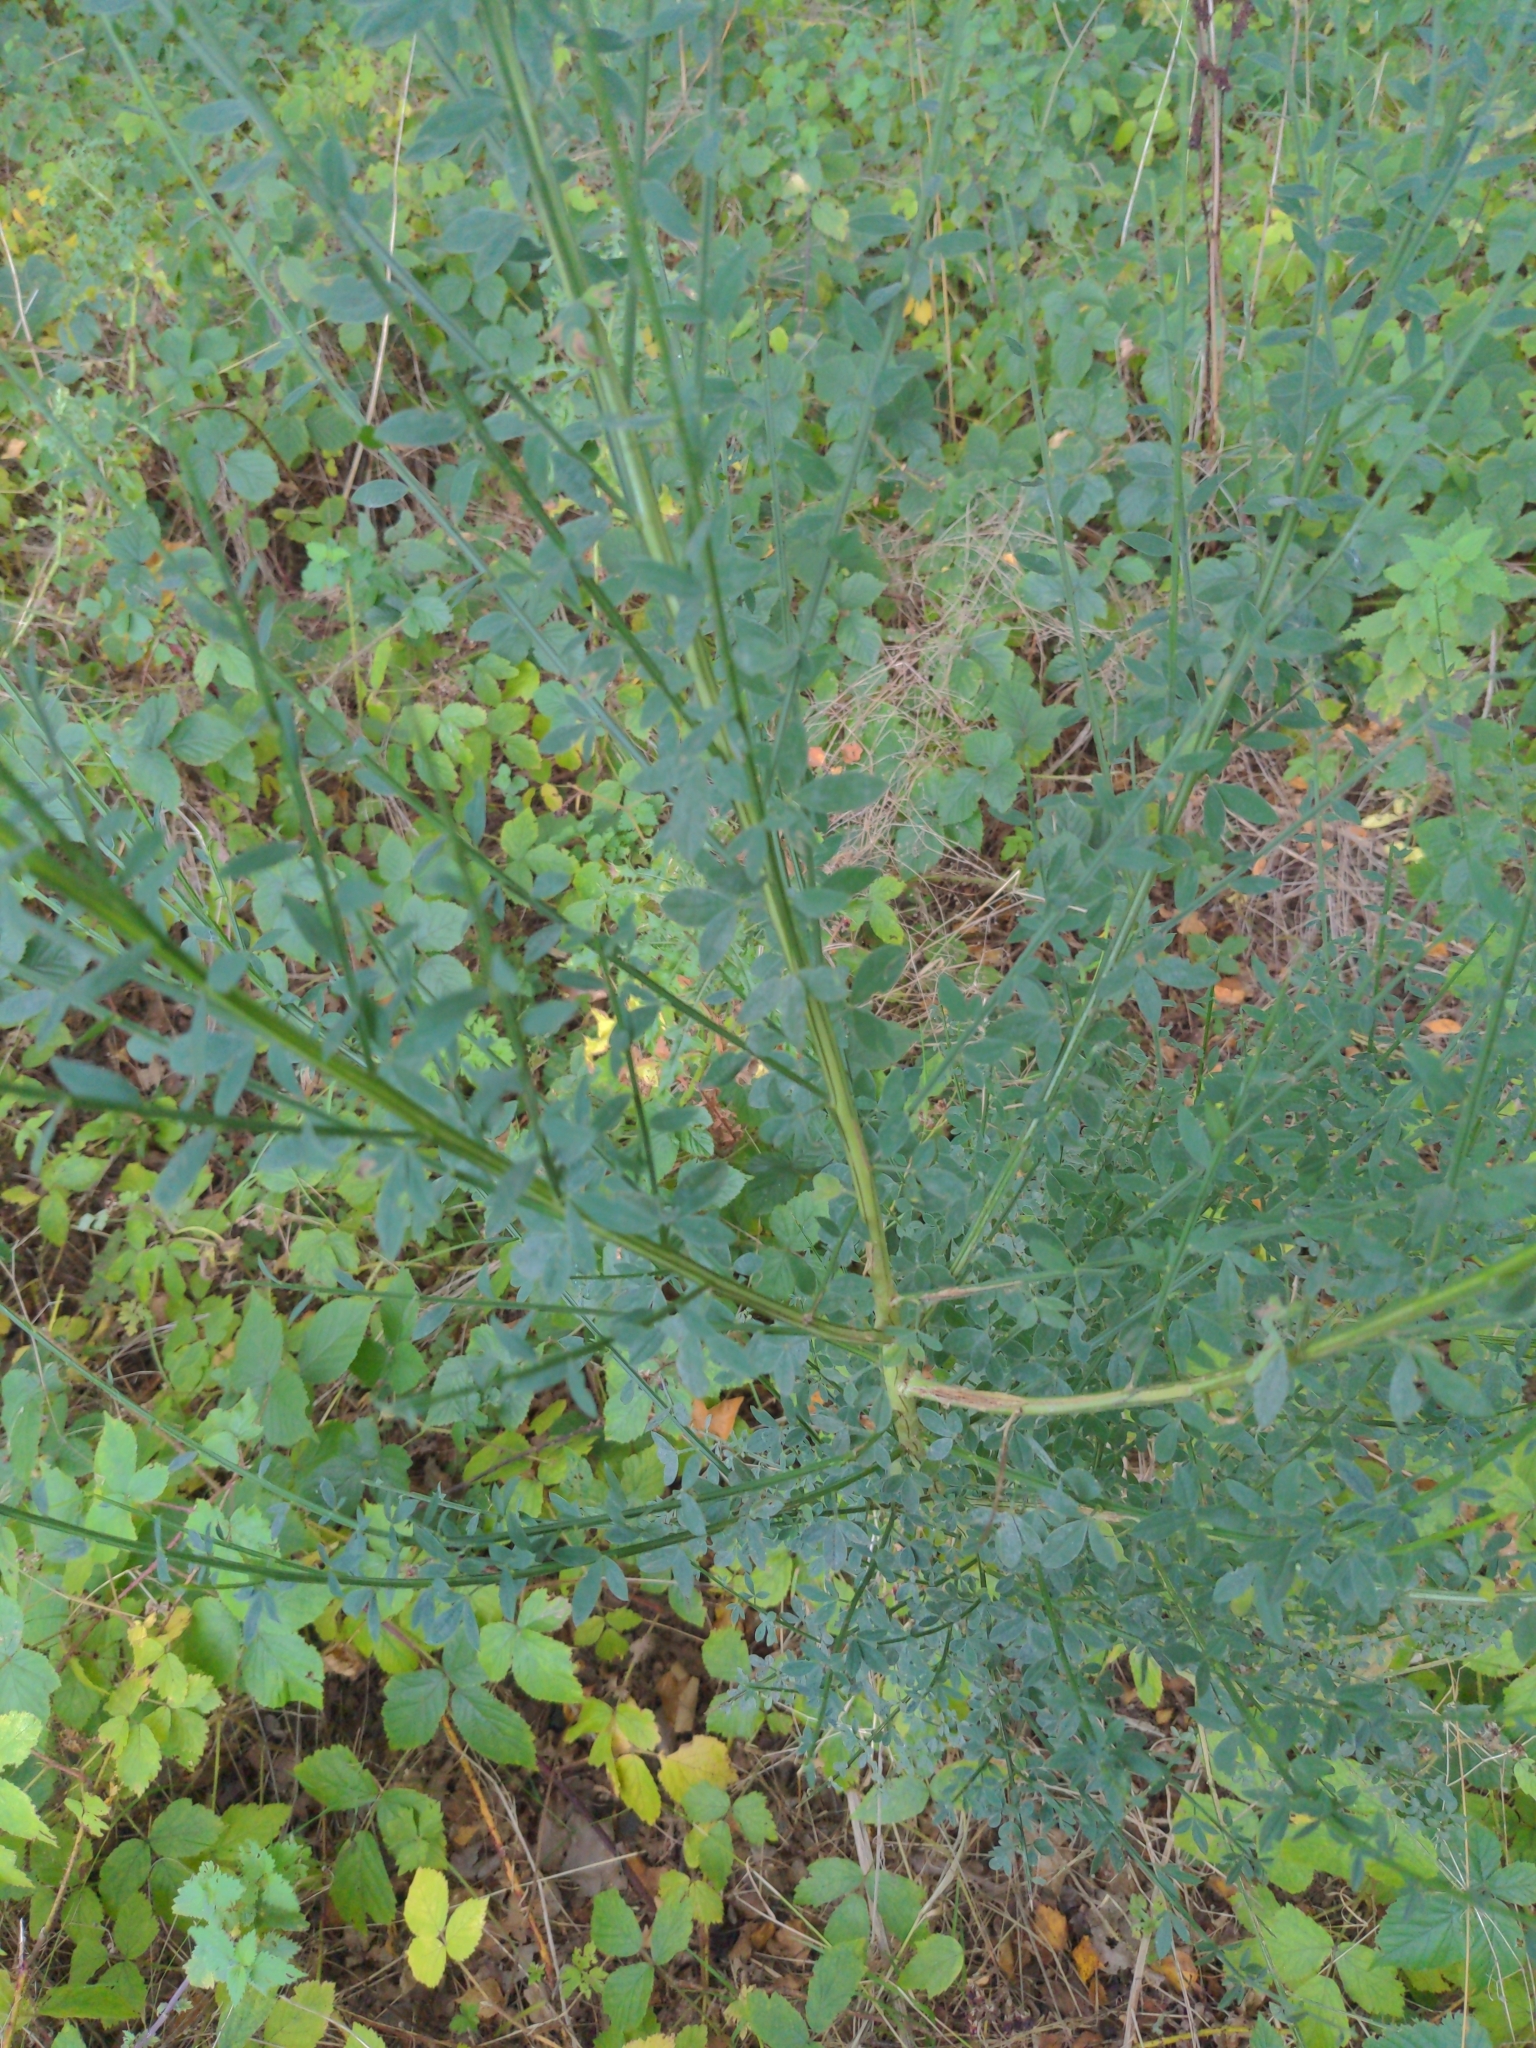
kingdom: Plantae
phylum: Tracheophyta
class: Magnoliopsida
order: Fabales
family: Fabaceae
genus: Cytisus
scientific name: Cytisus scoparius
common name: Scotch broom
